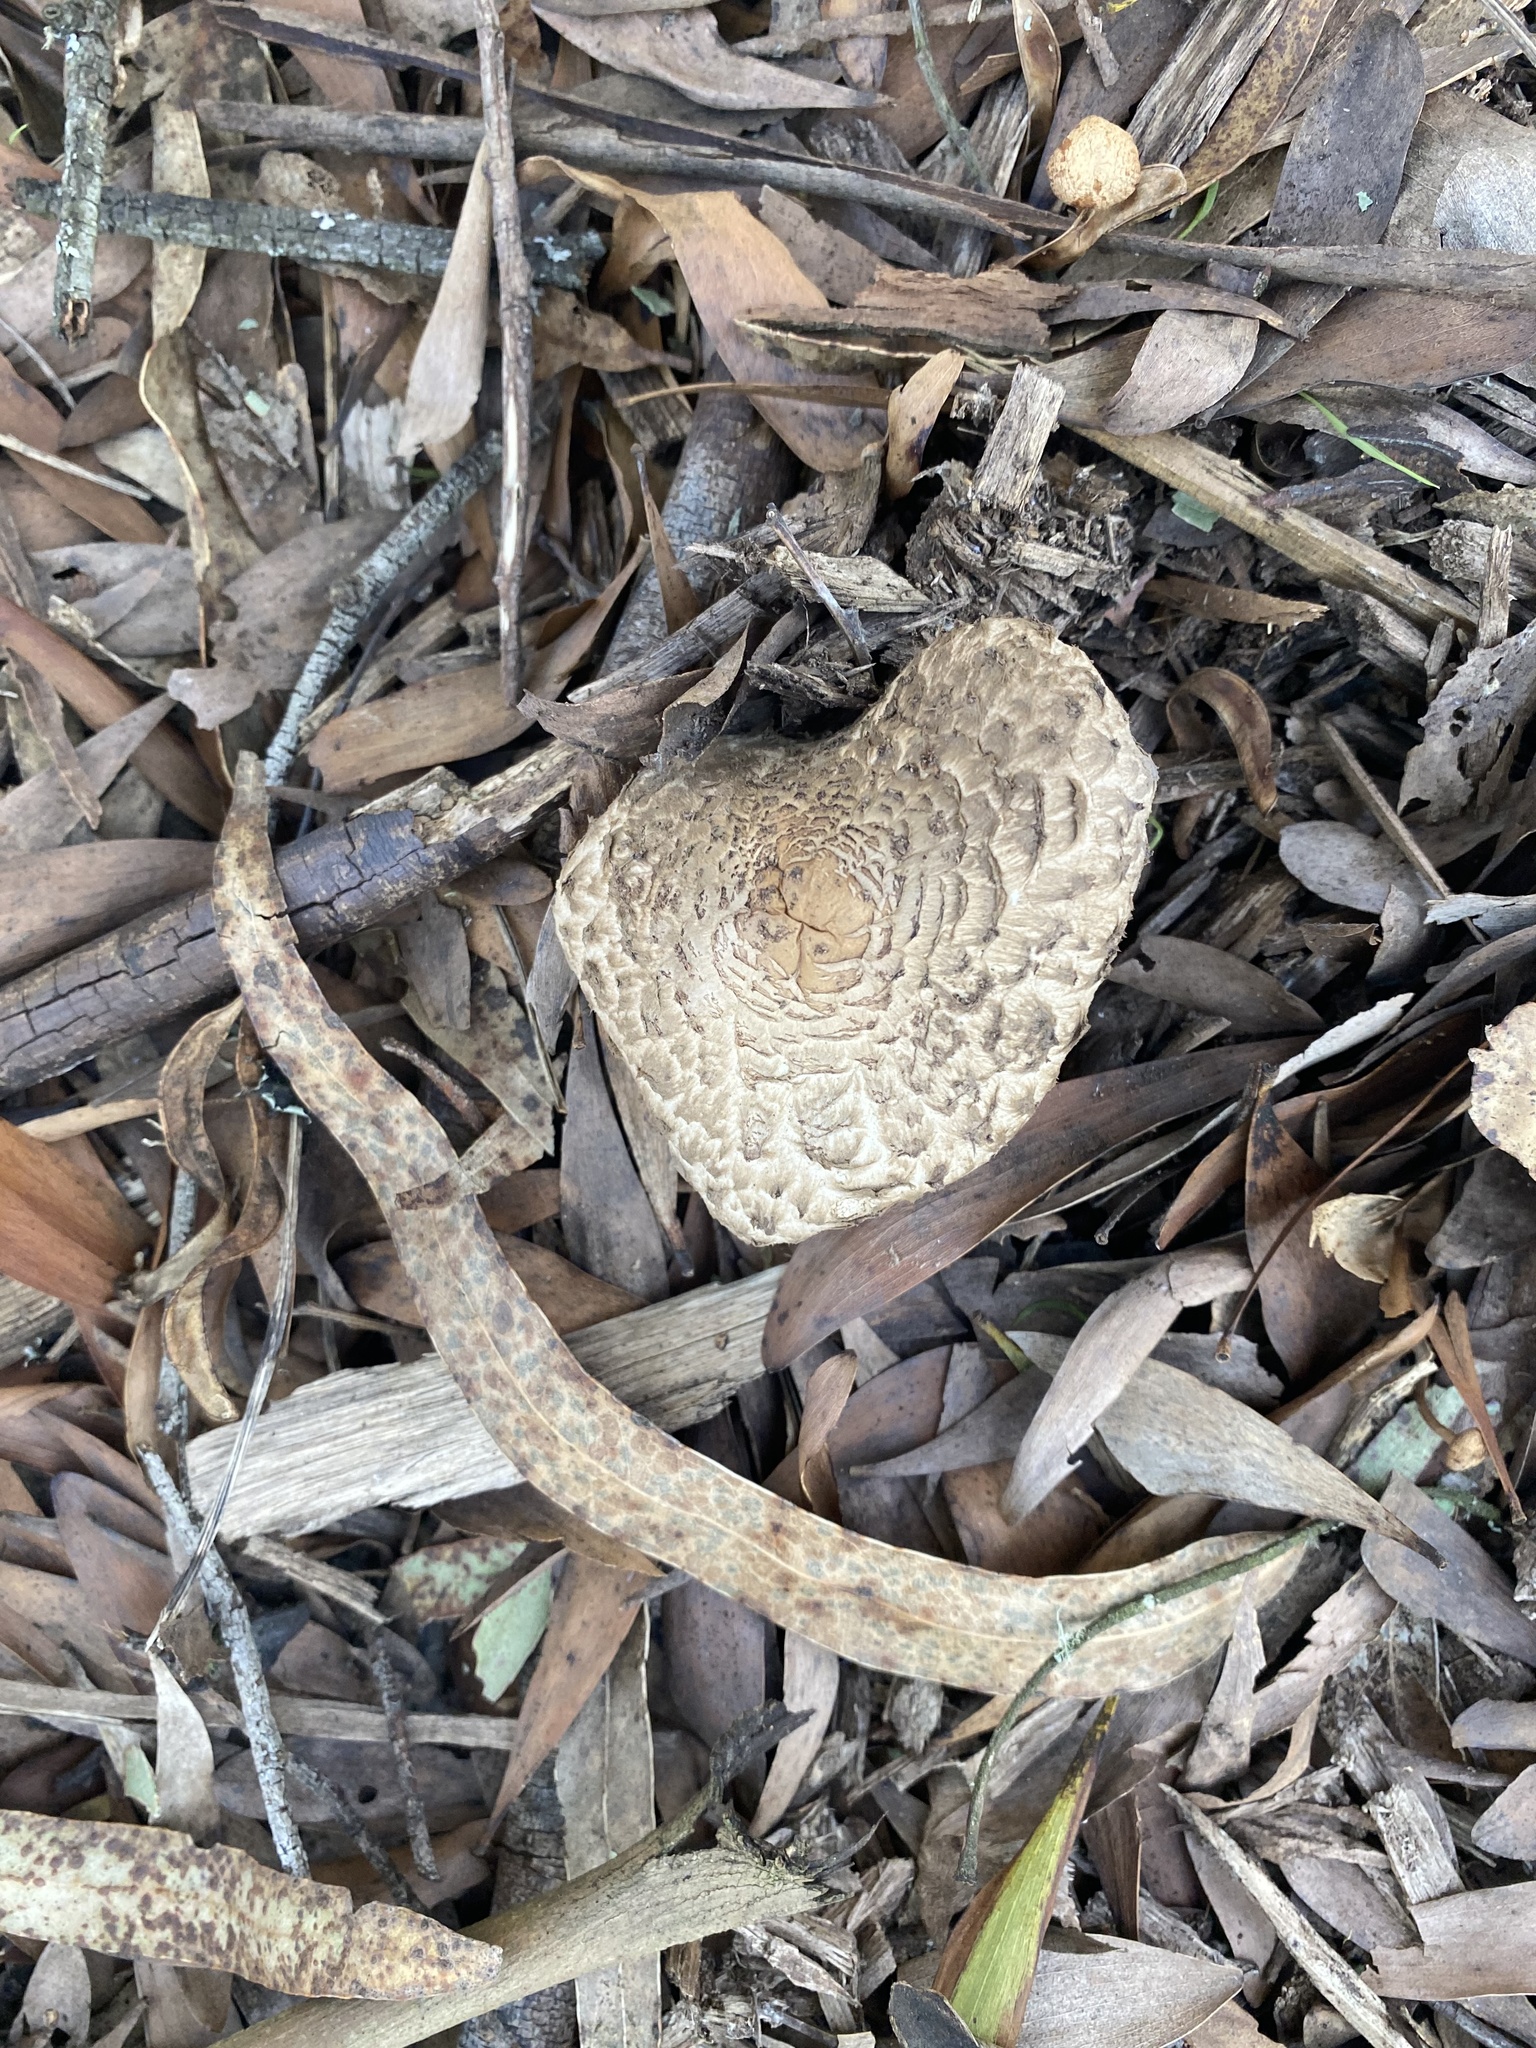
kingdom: Fungi
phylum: Basidiomycota
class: Agaricomycetes
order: Agaricales
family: Agaricaceae
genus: Chlorophyllum
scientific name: Chlorophyllum olivieri
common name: Conifer parasol
